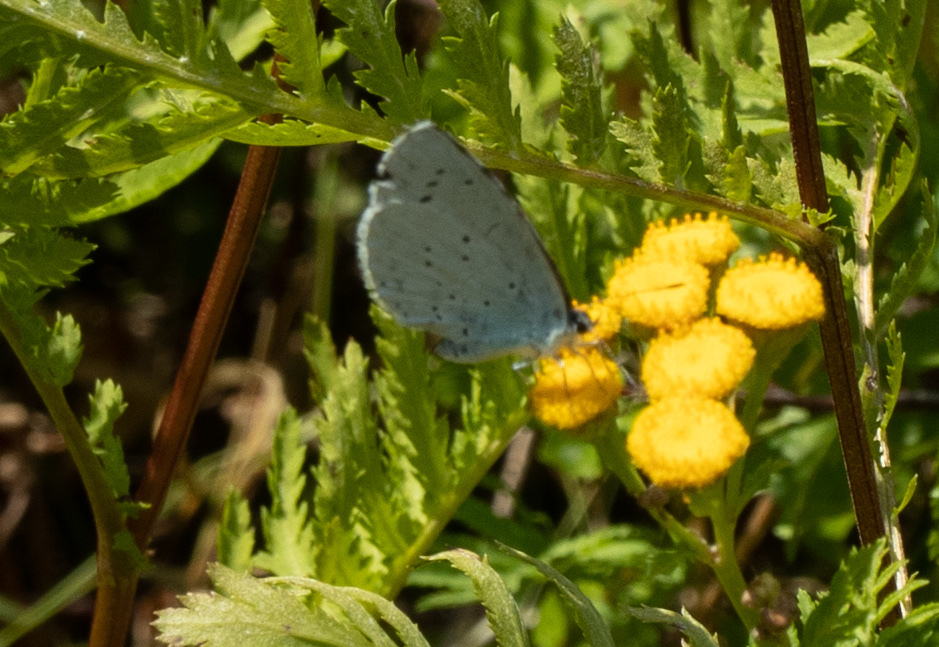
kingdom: Animalia
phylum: Arthropoda
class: Insecta
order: Lepidoptera
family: Lycaenidae
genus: Celastrina
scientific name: Celastrina argiolus
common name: Holly blue
